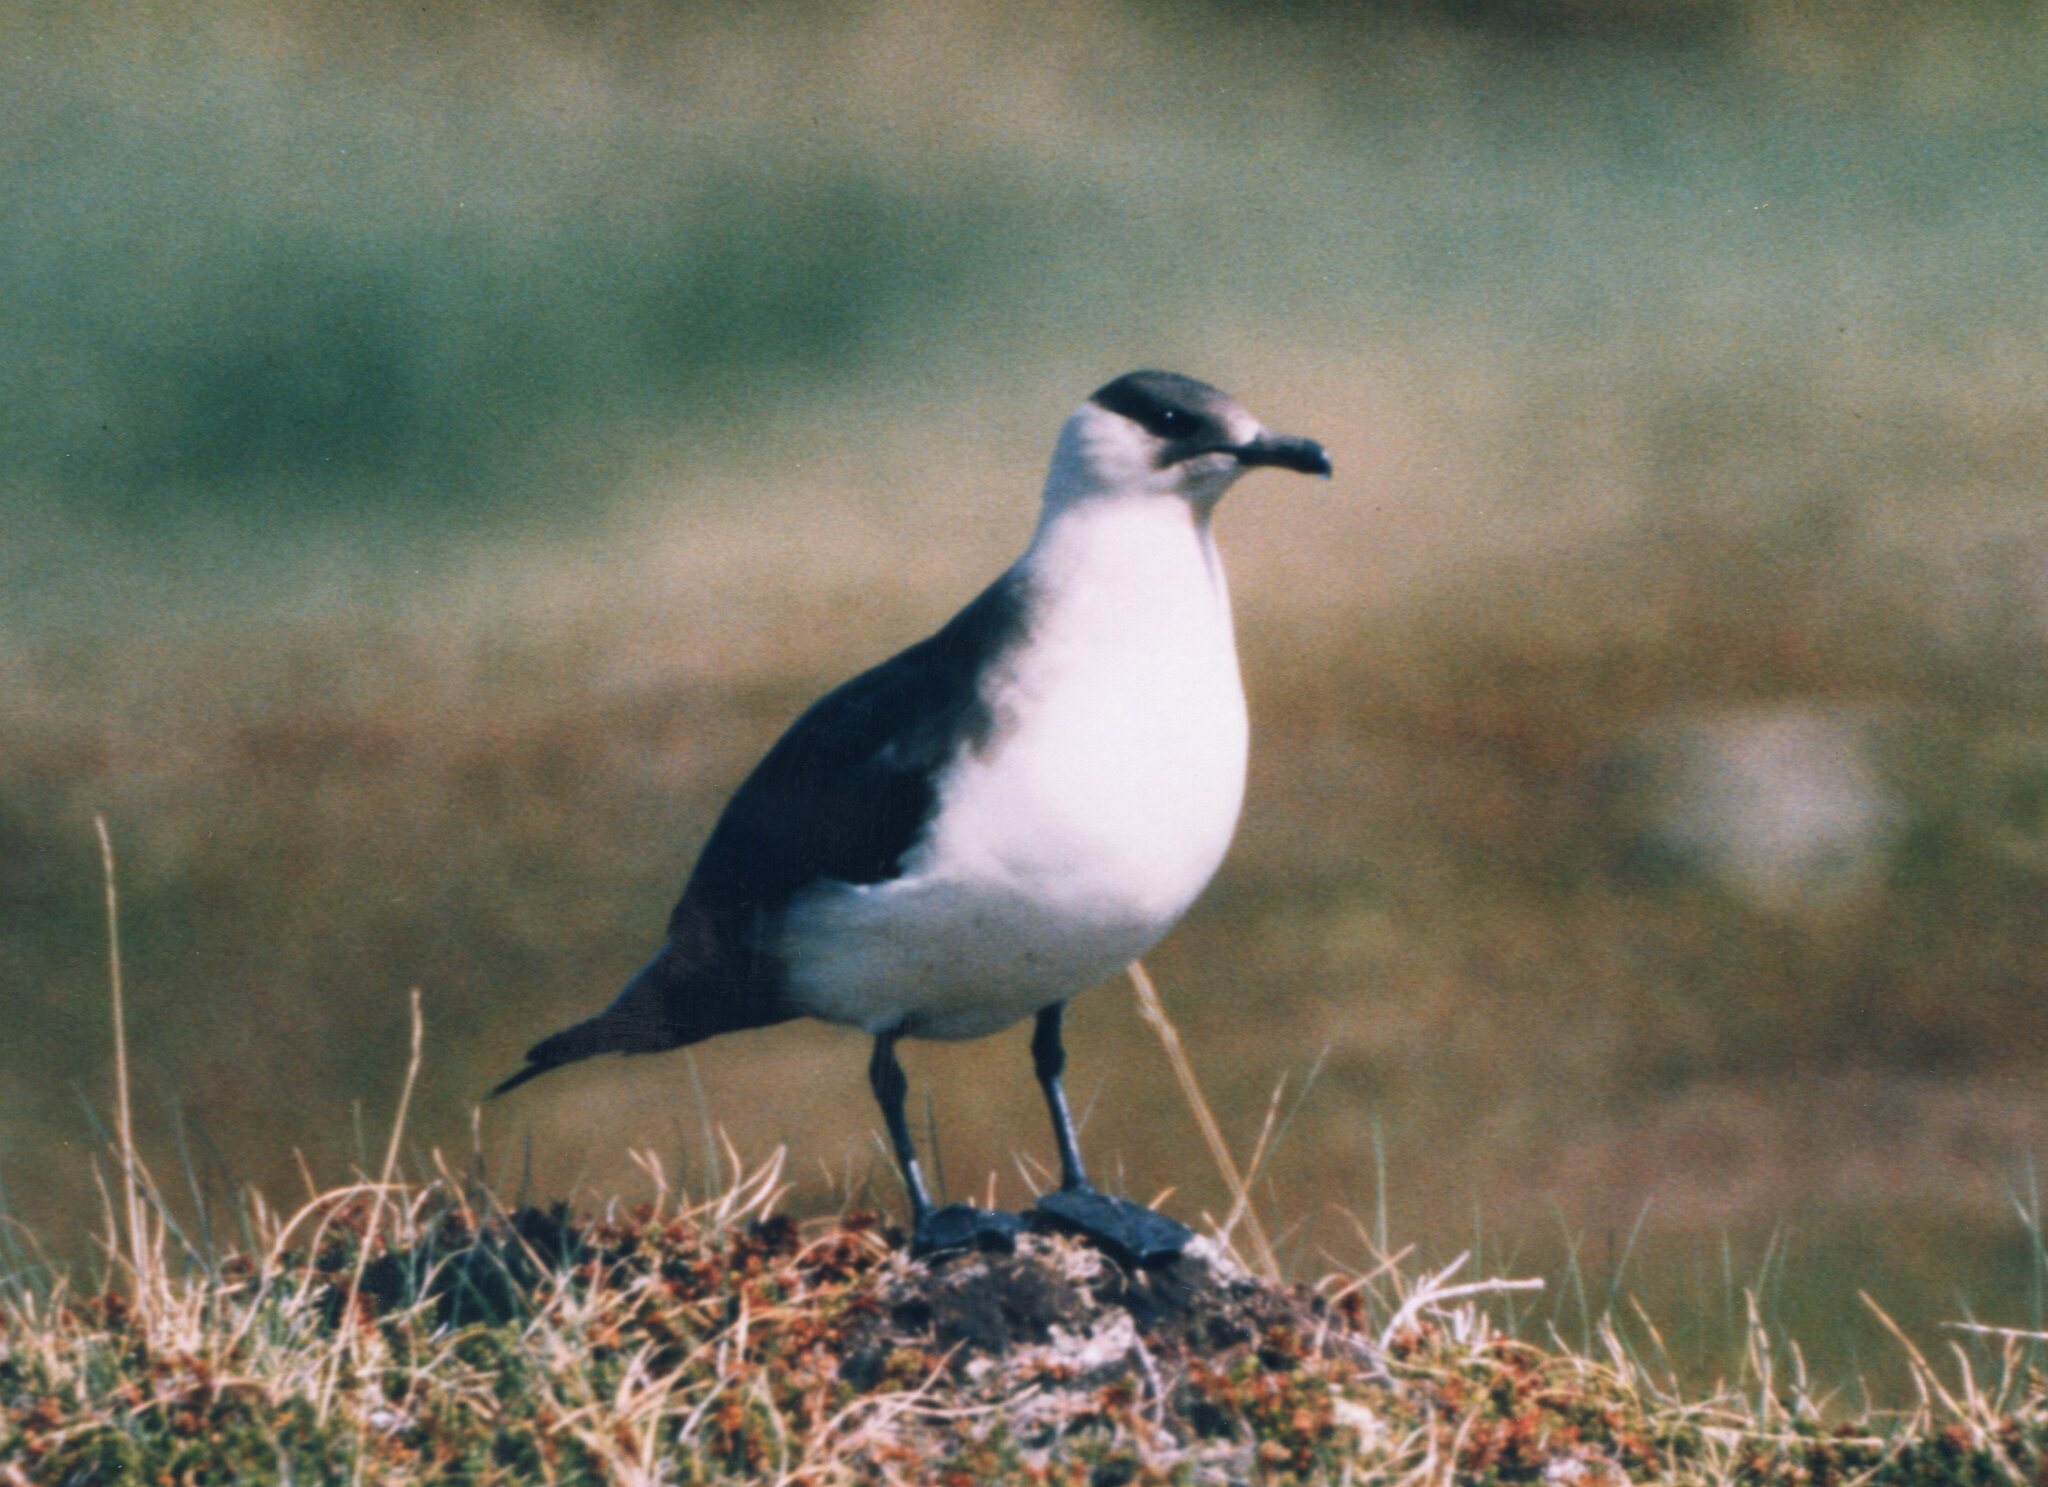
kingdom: Animalia
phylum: Chordata
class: Aves
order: Charadriiformes
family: Stercorariidae
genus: Stercorarius
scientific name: Stercorarius parasiticus
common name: Parasitic jaeger
